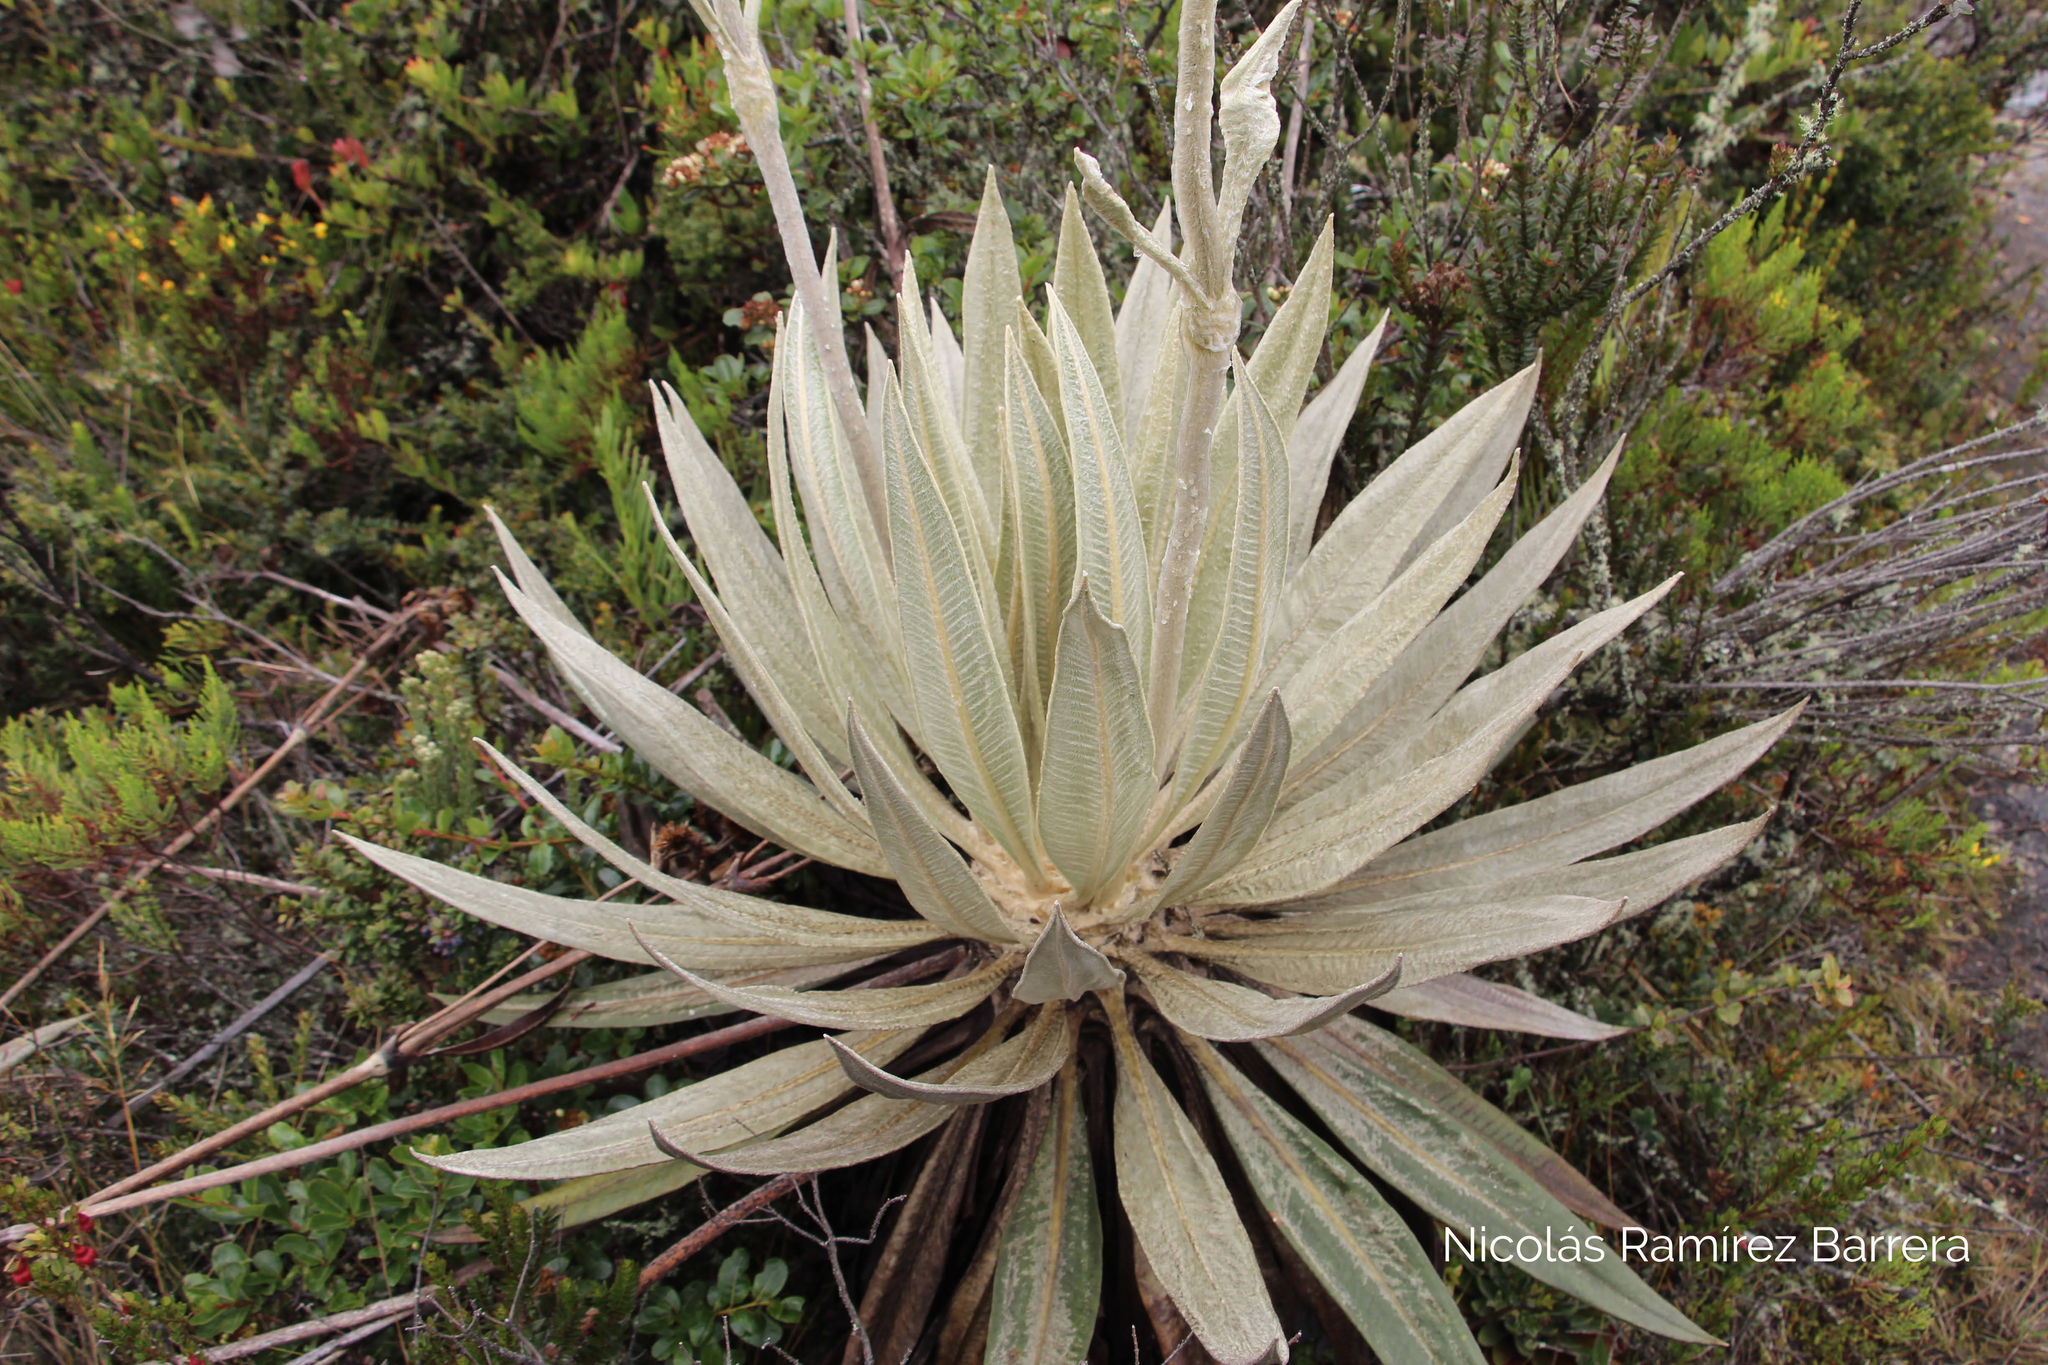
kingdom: Plantae
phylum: Tracheophyta
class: Magnoliopsida
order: Asterales
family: Asteraceae
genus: Espeletia
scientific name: Espeletia grandiflora
